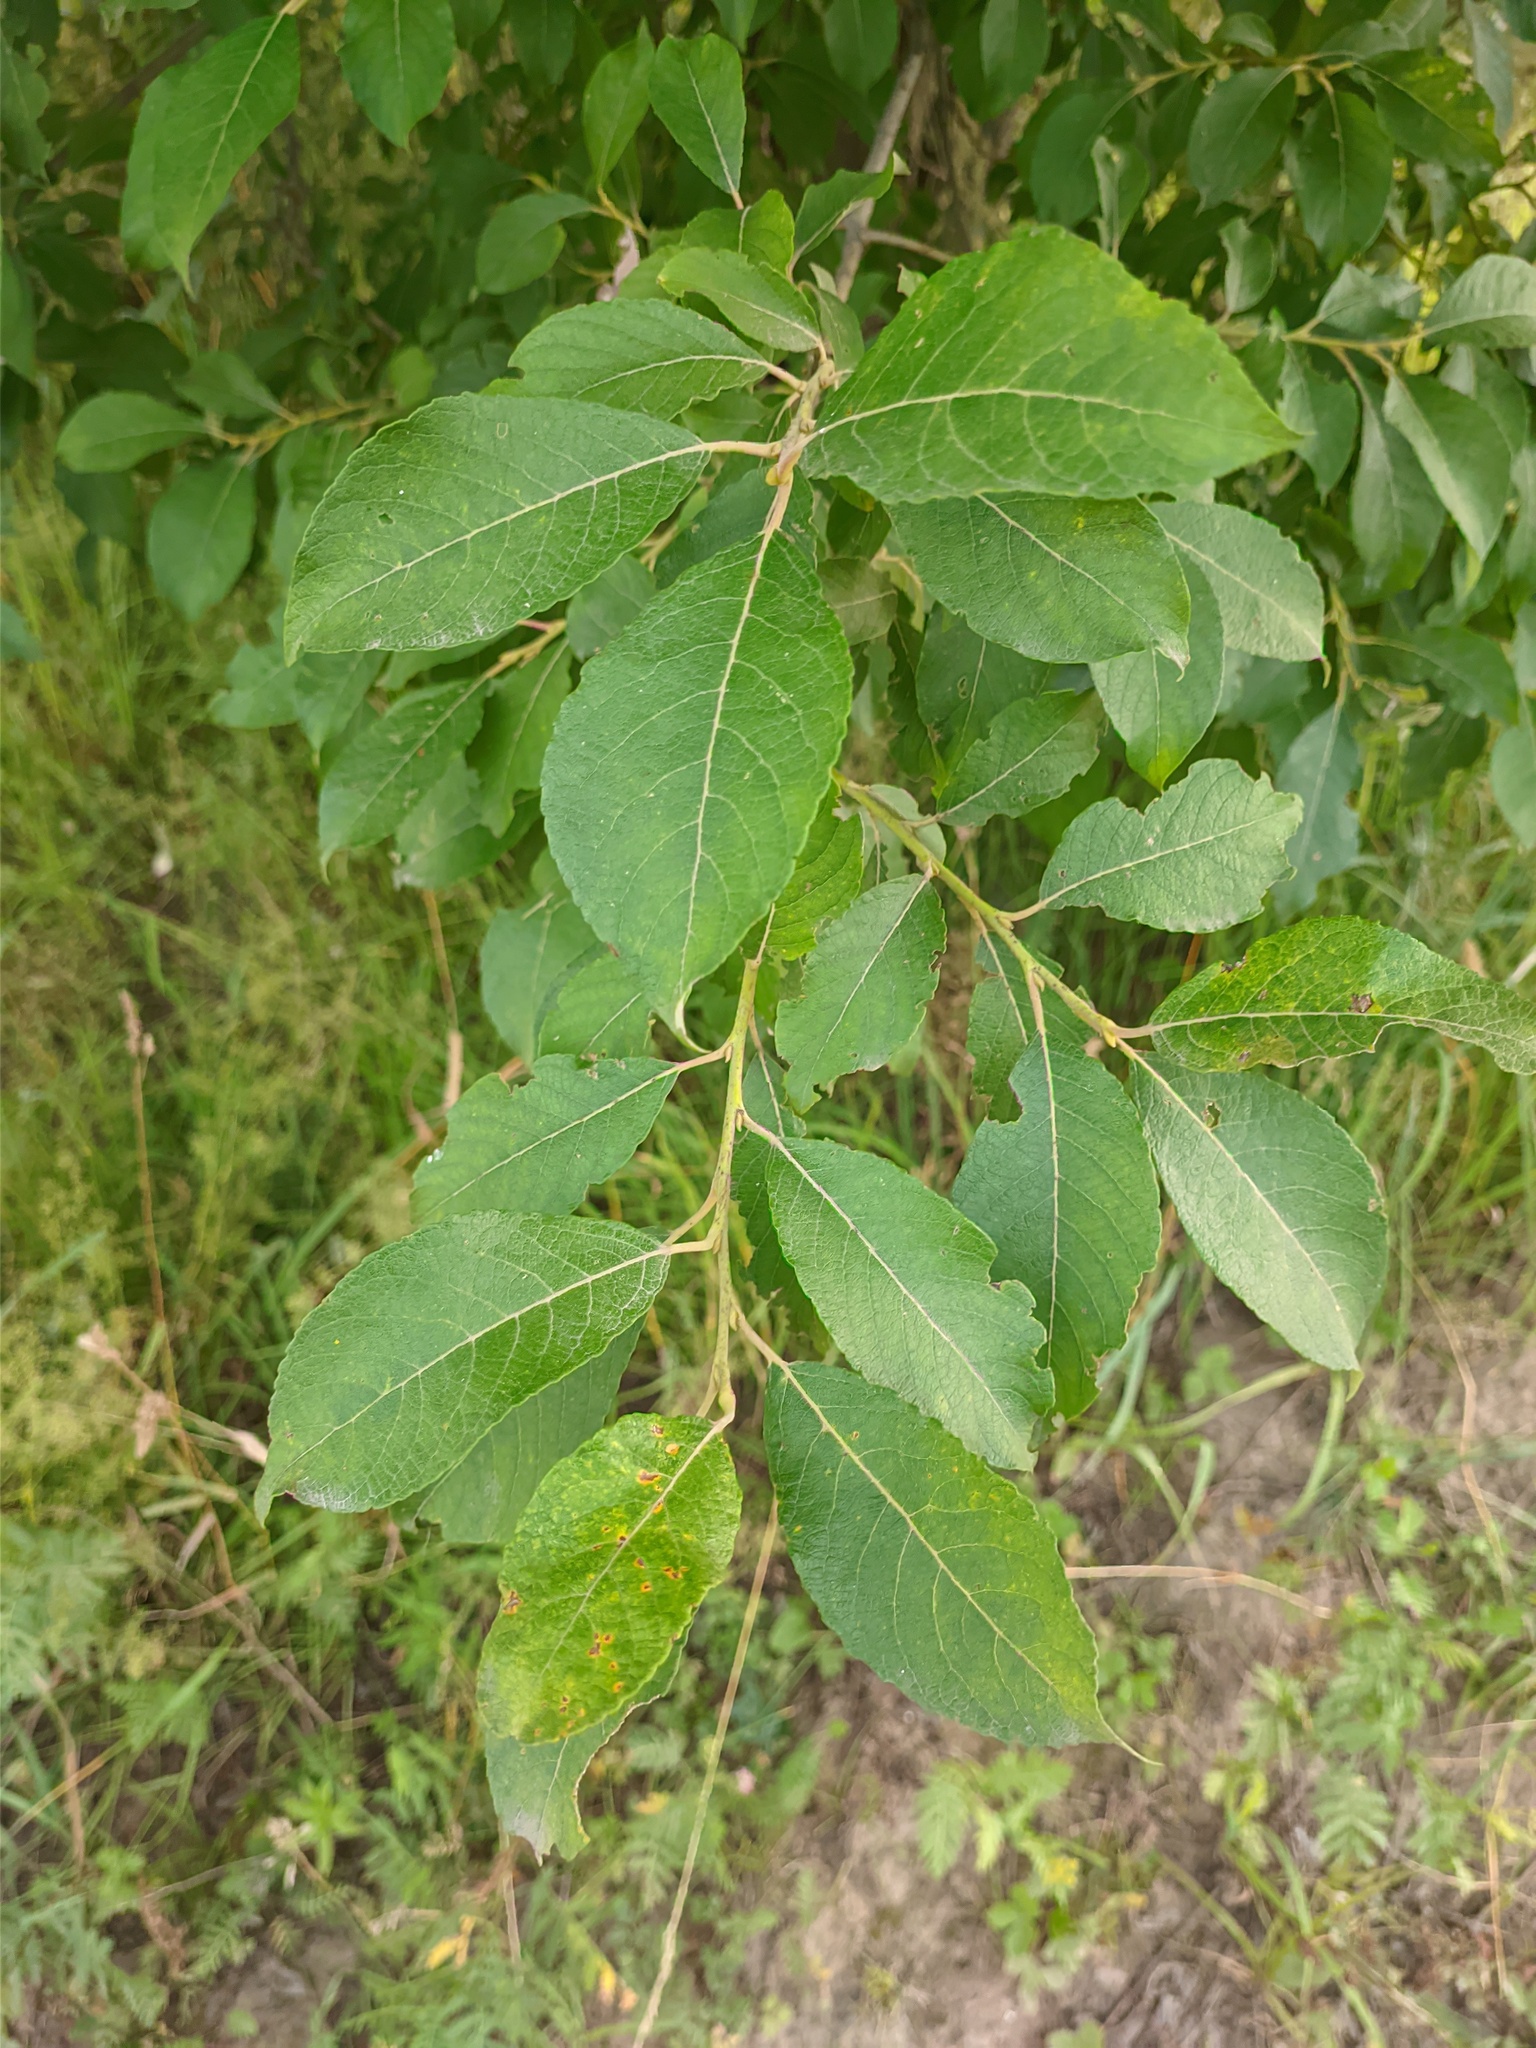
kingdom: Plantae
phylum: Tracheophyta
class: Magnoliopsida
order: Malpighiales
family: Salicaceae
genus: Salix
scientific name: Salix caprea
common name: Goat willow
